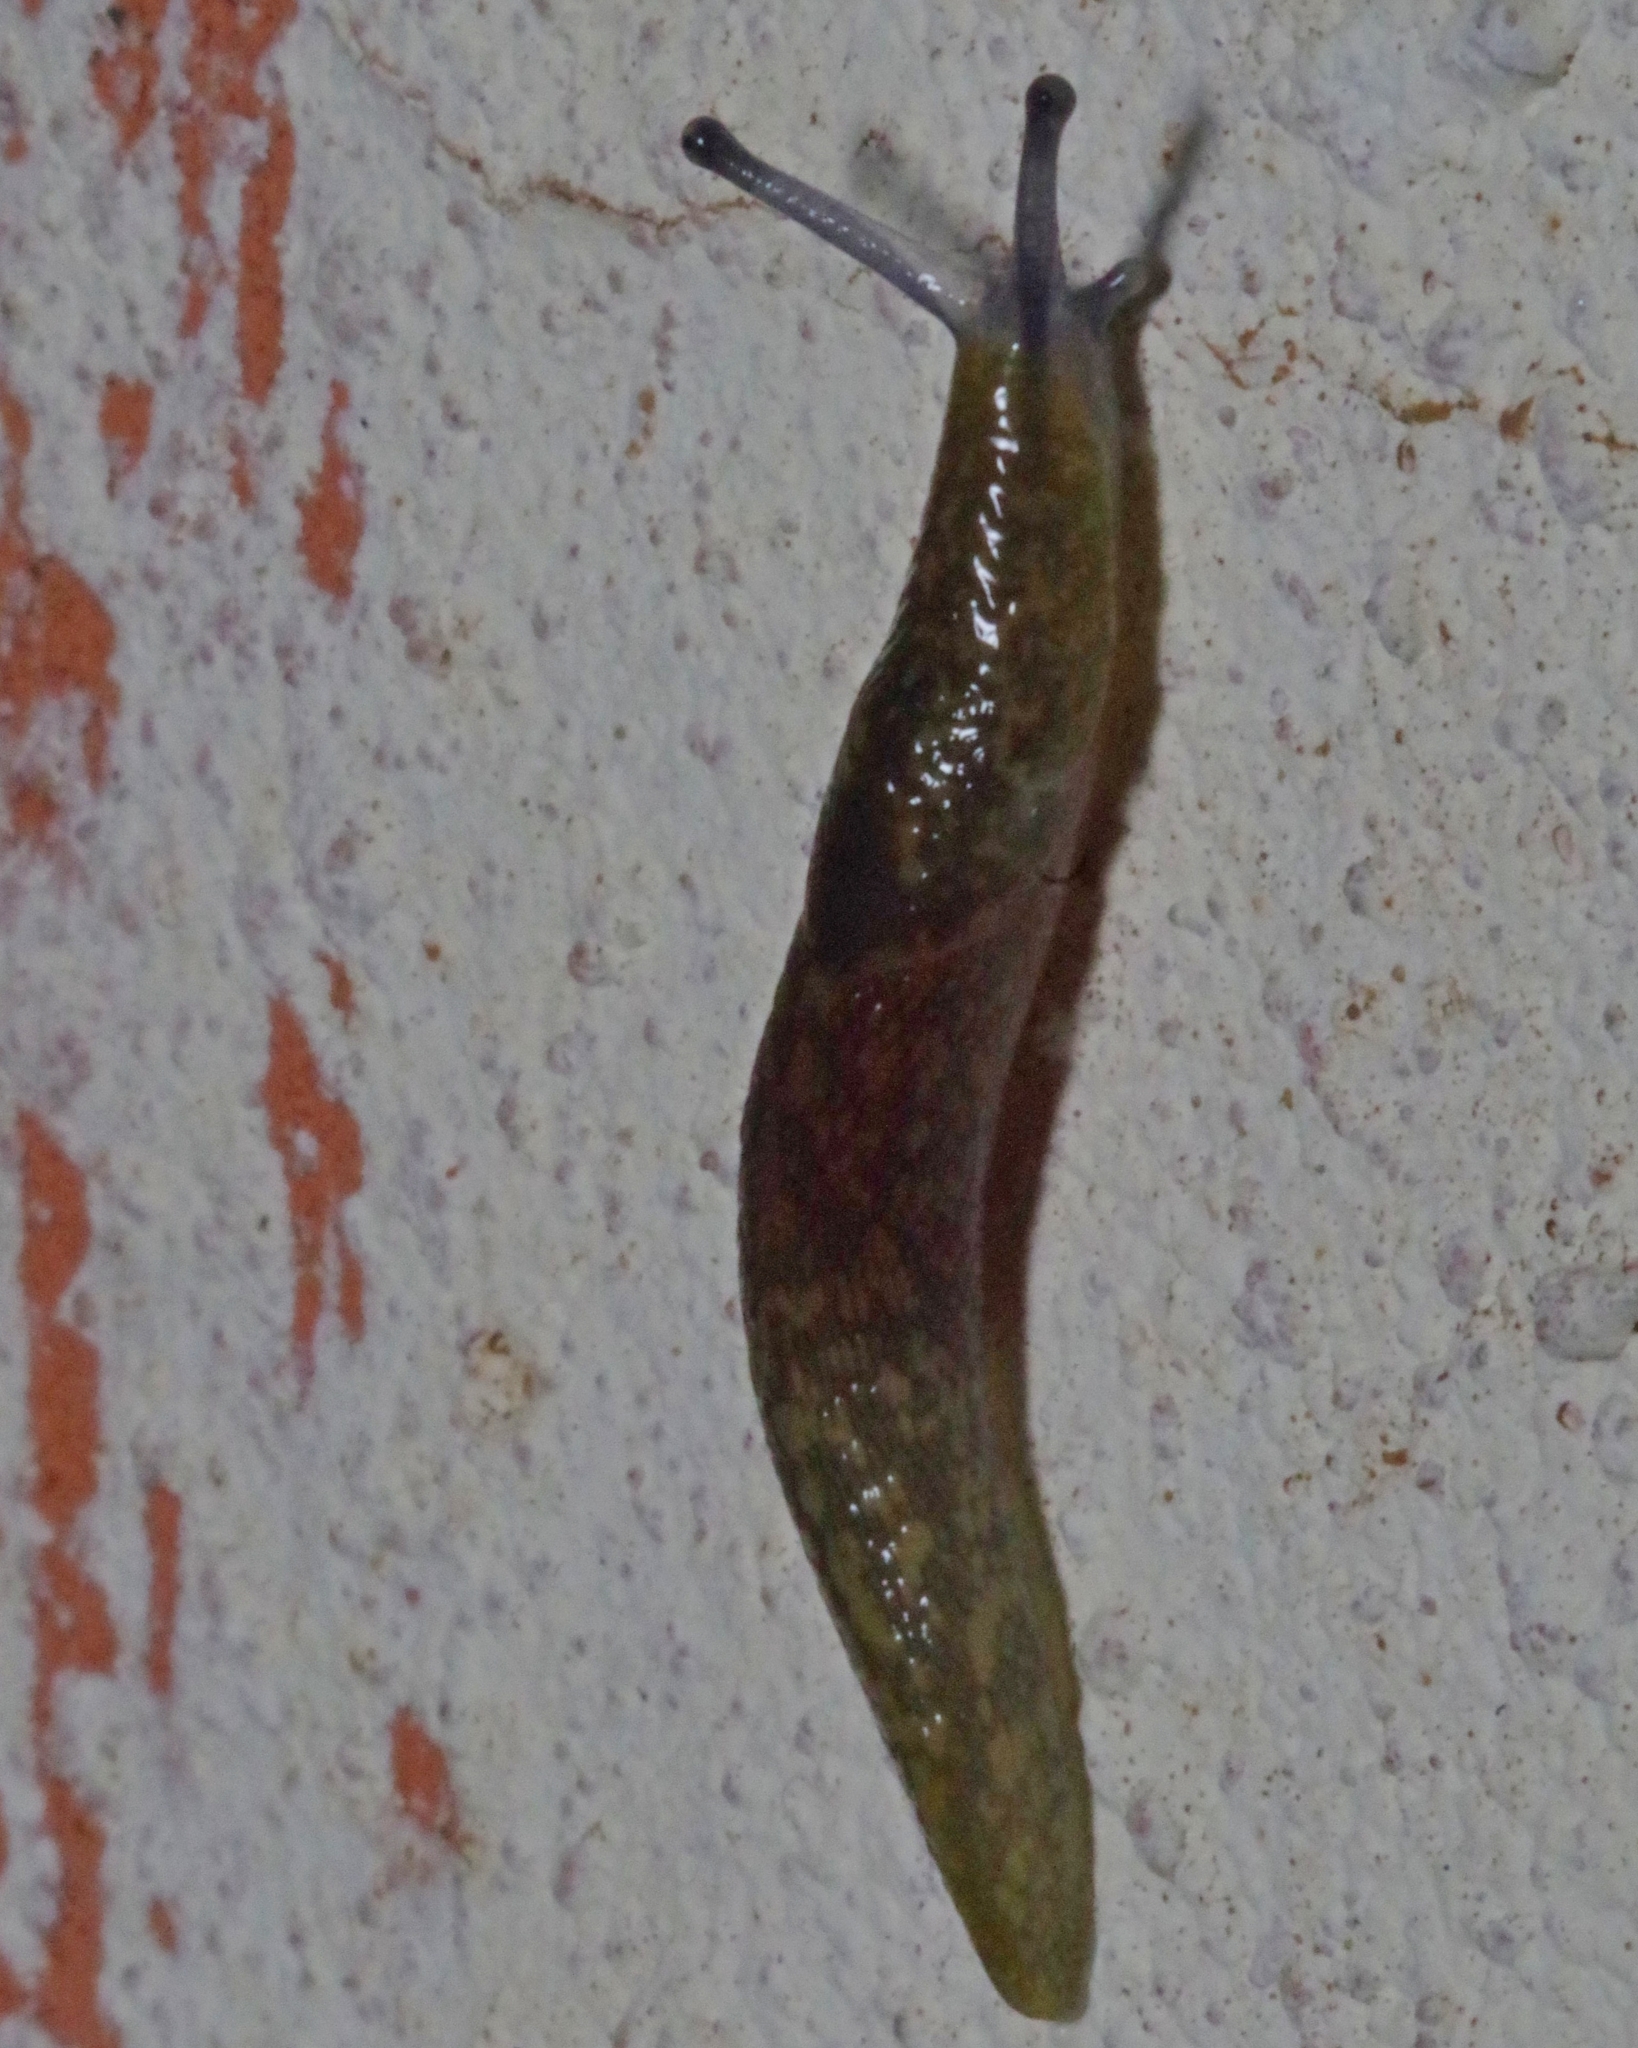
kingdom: Animalia
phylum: Mollusca
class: Gastropoda
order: Stylommatophora
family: Limacidae
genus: Limacus
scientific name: Limacus flavus
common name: Yellow gardenslug
